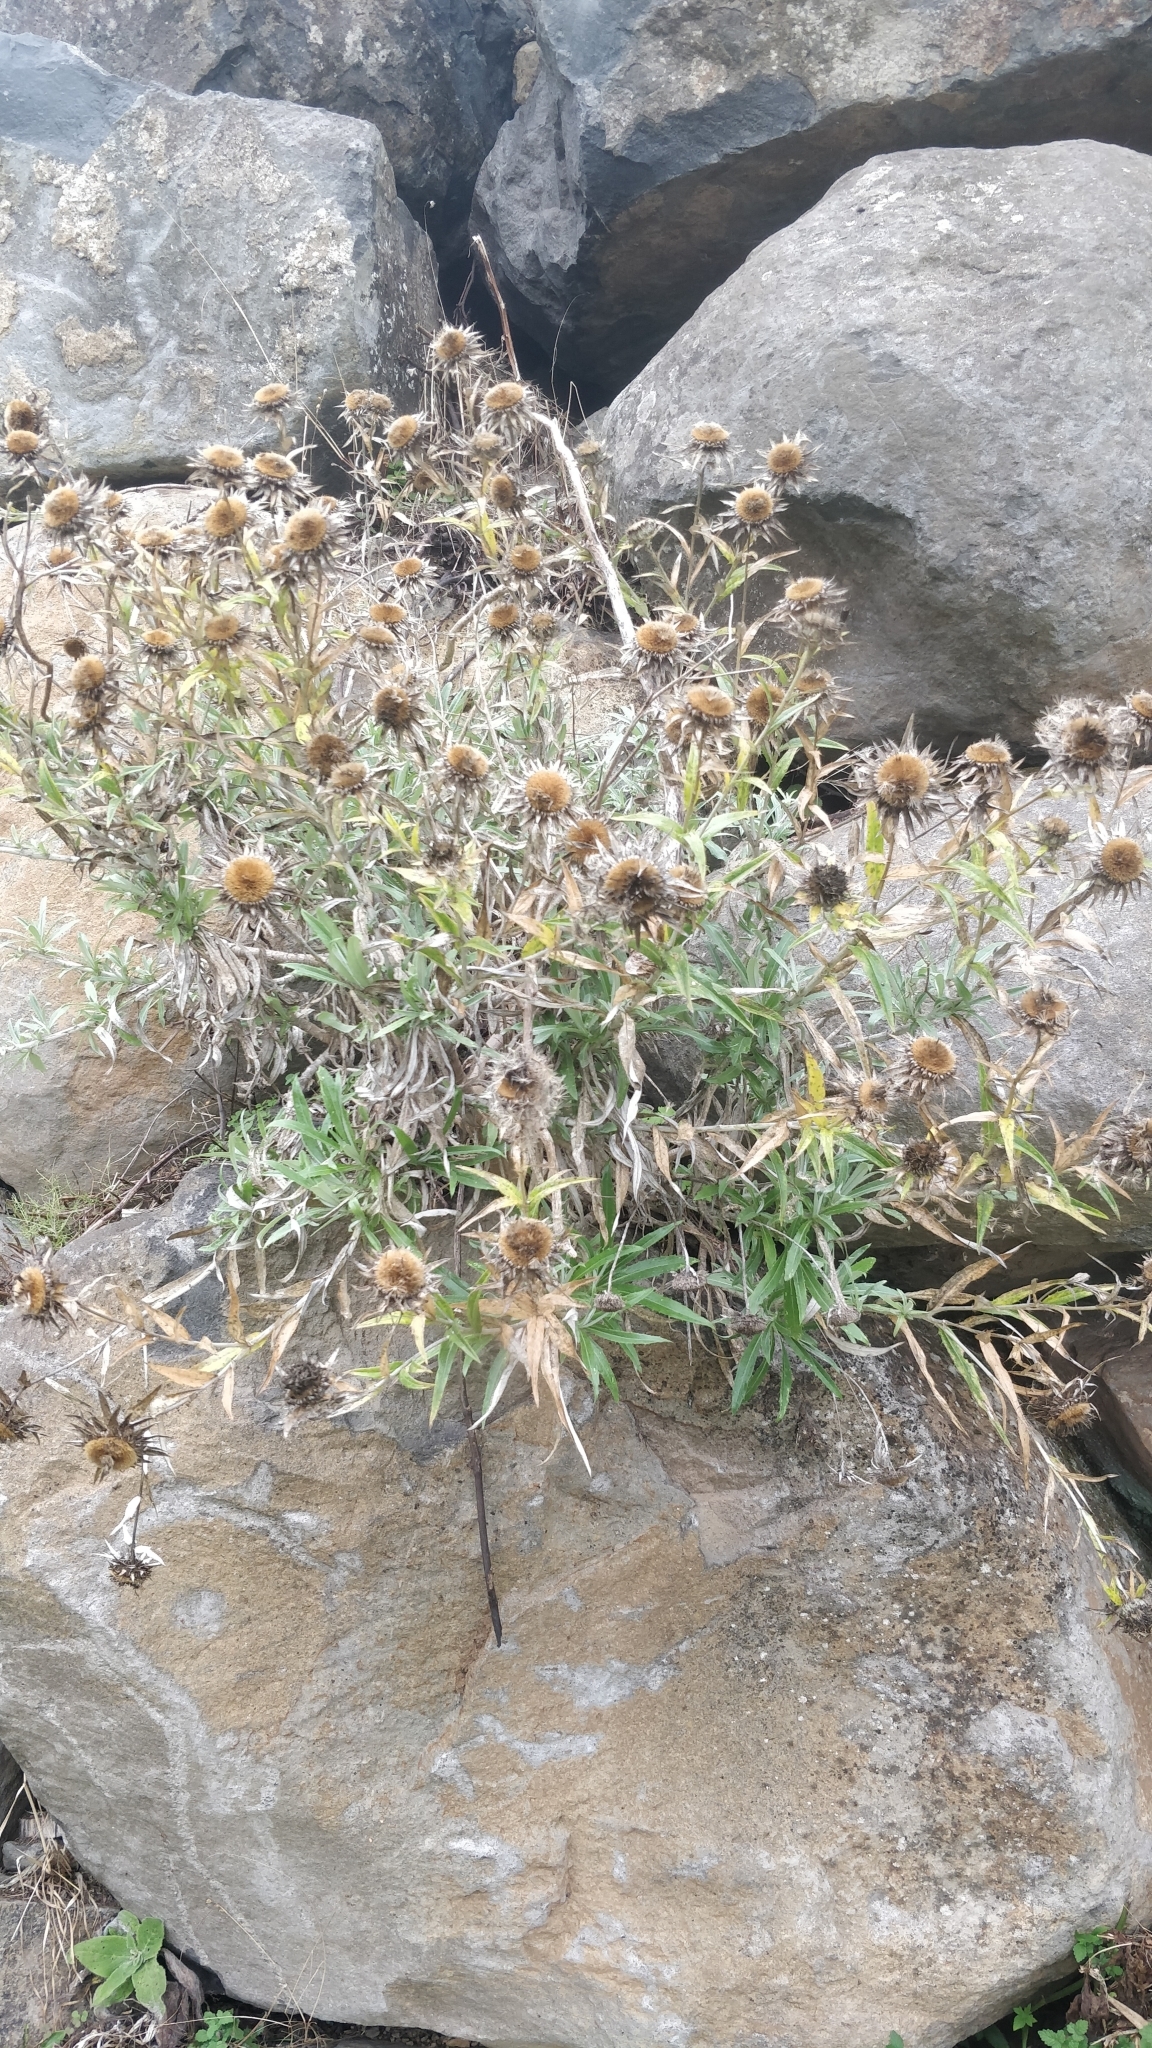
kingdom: Plantae
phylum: Tracheophyta
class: Magnoliopsida
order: Asterales
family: Asteraceae
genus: Carlina
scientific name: Carlina salicifolia
